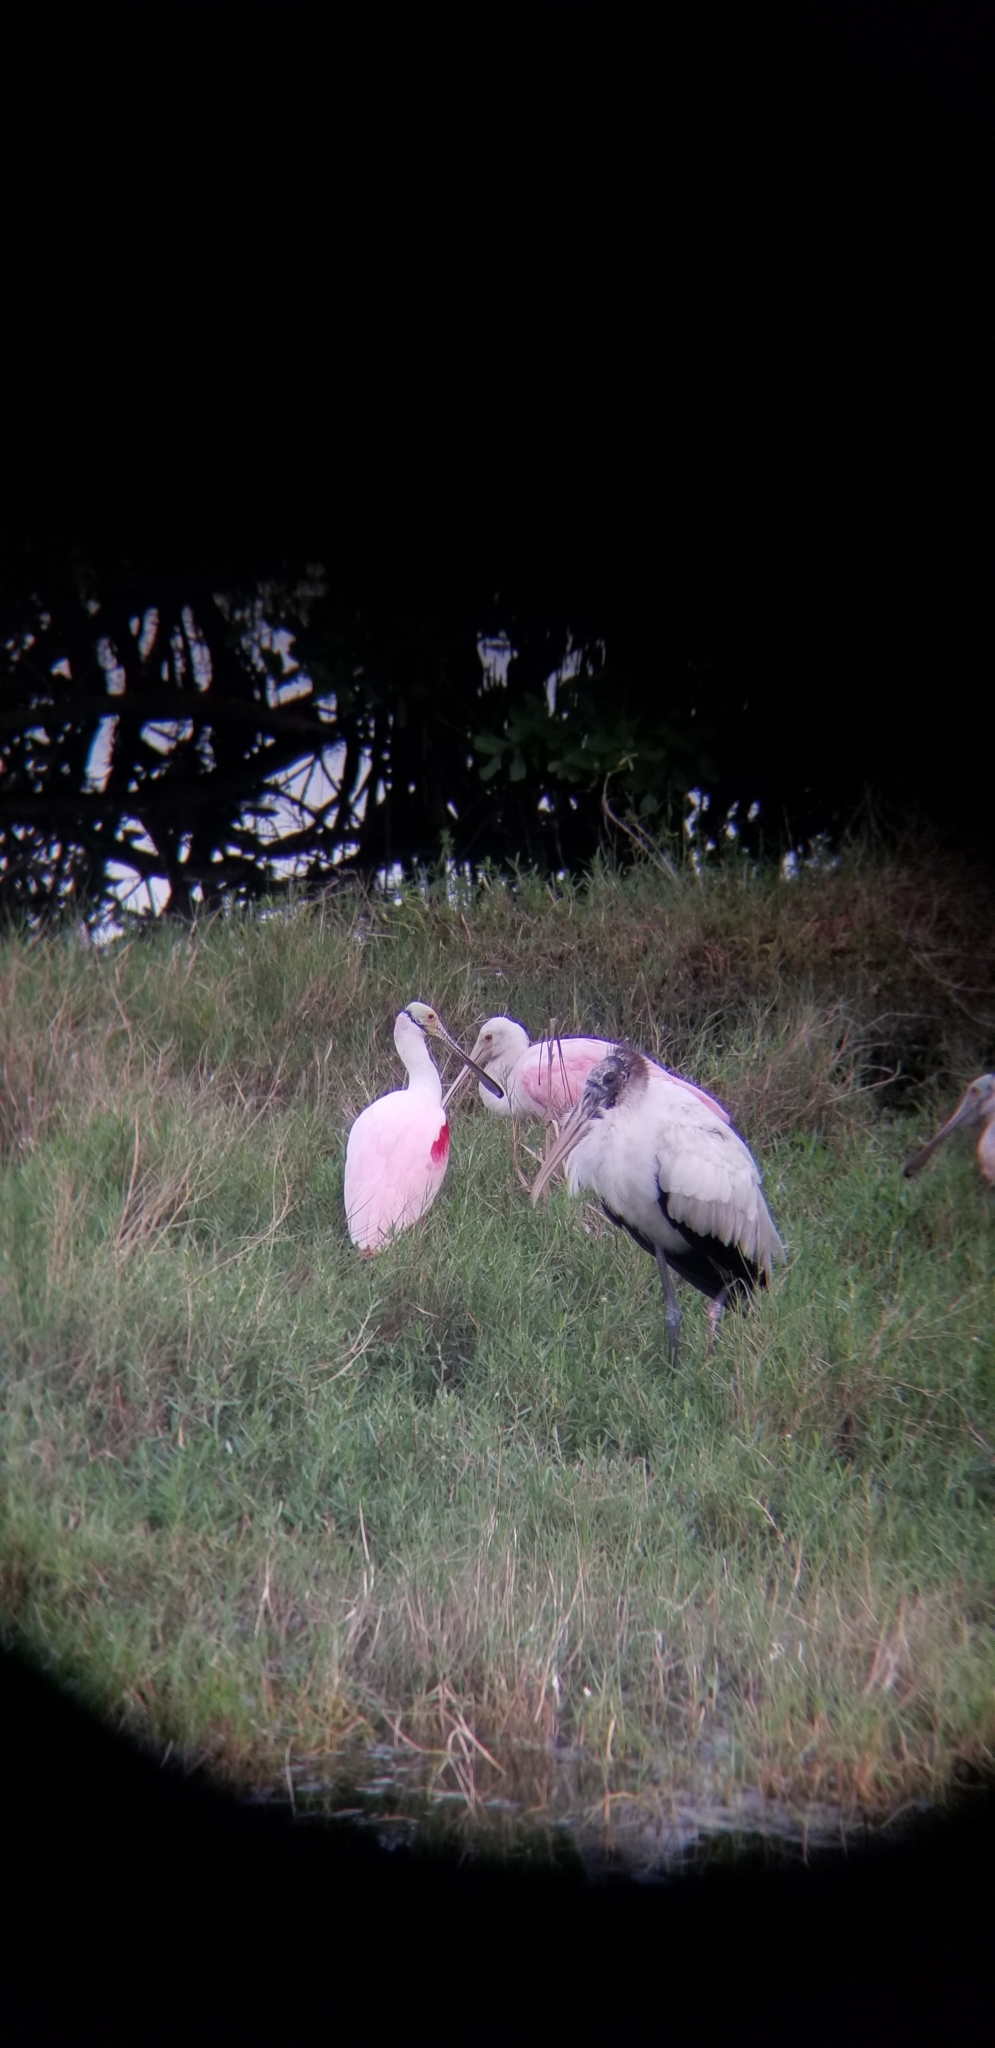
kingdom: Animalia
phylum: Chordata
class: Aves
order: Pelecaniformes
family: Threskiornithidae
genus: Platalea
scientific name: Platalea ajaja
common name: Roseate spoonbill
